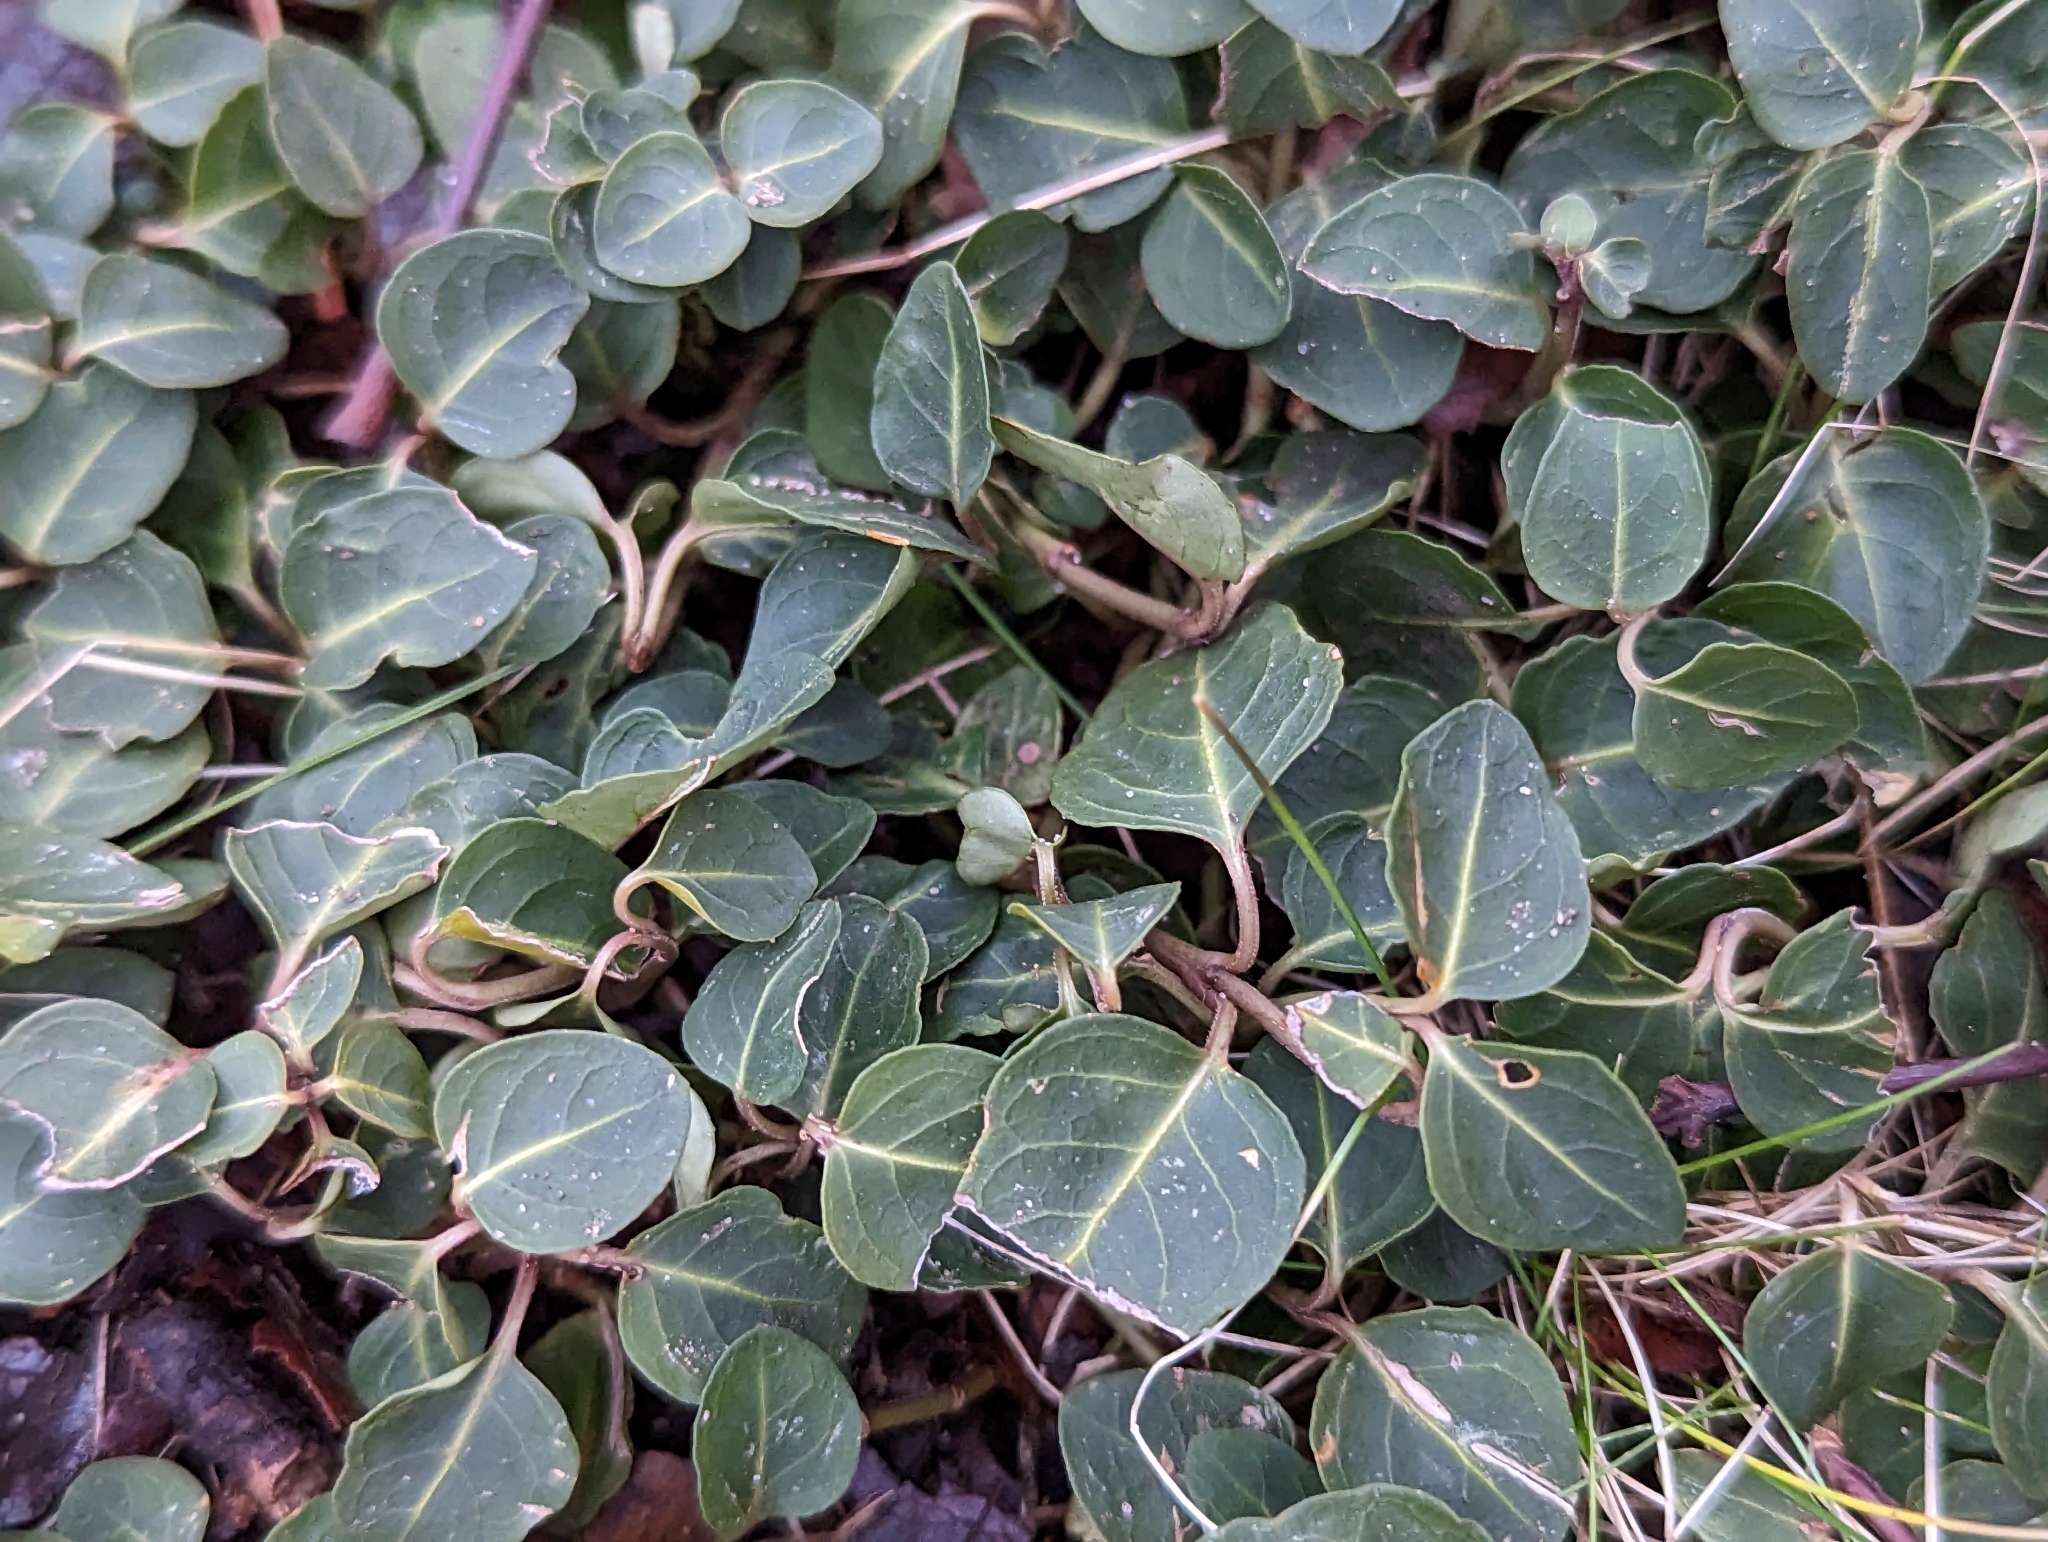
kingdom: Plantae
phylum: Tracheophyta
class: Magnoliopsida
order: Gentianales
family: Rubiaceae
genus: Mitchella
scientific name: Mitchella repens
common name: Partridge-berry
